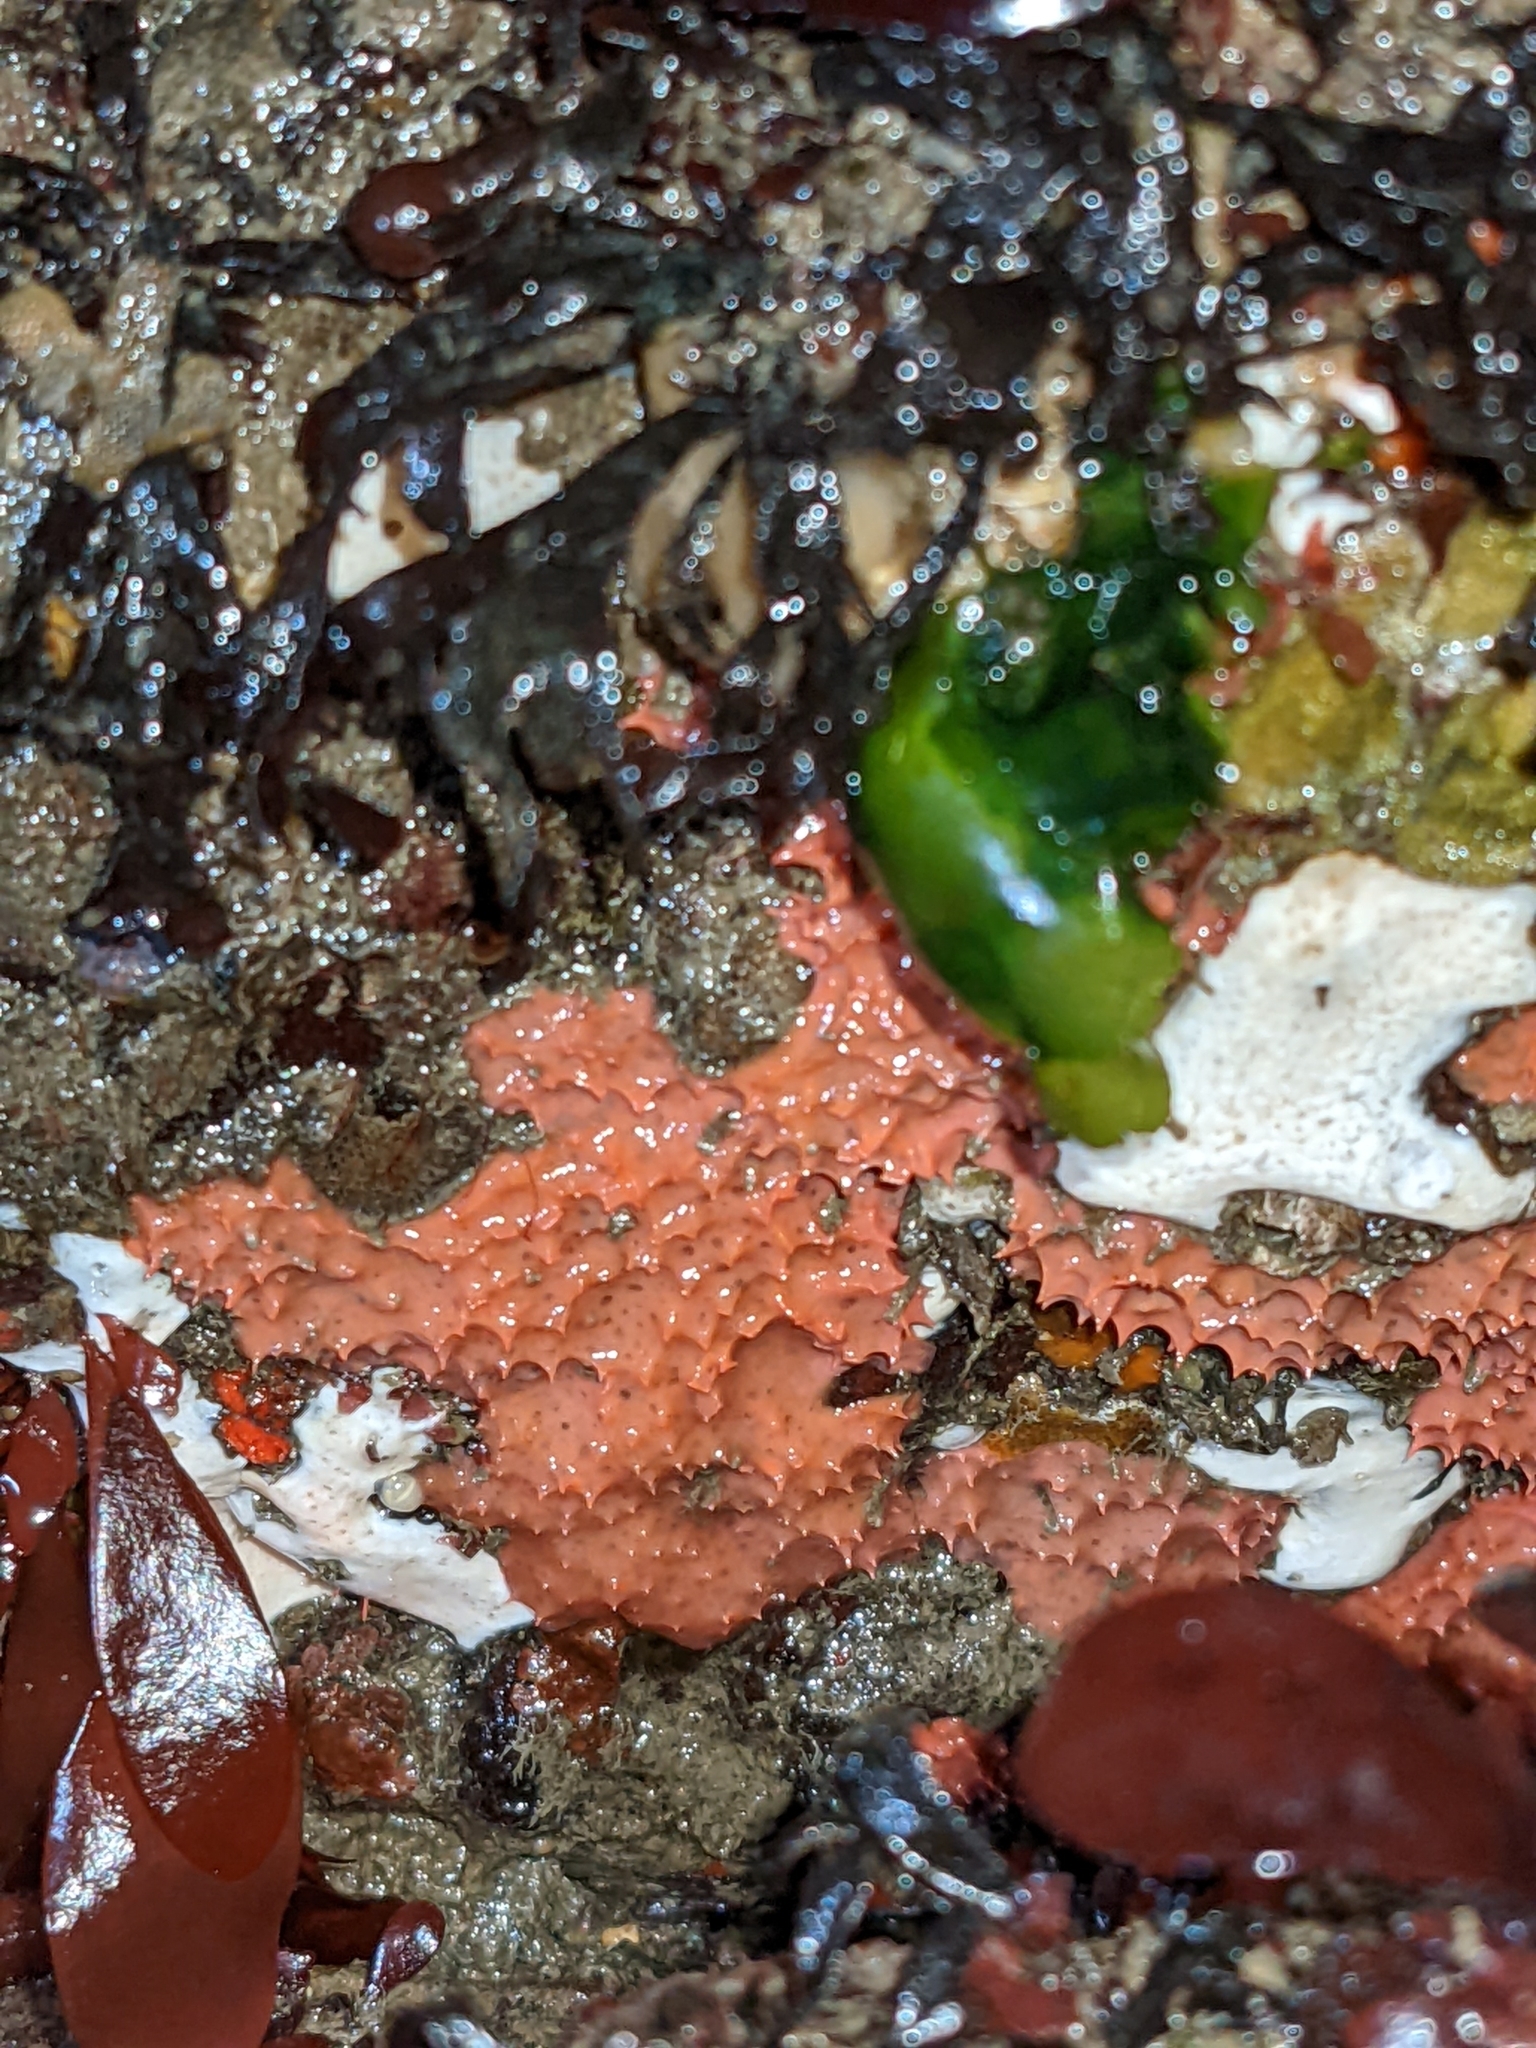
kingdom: Animalia
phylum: Porifera
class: Demospongiae
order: Dendroceratida
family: Darwinellidae
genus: Aplysilla
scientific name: Aplysilla glacialis
